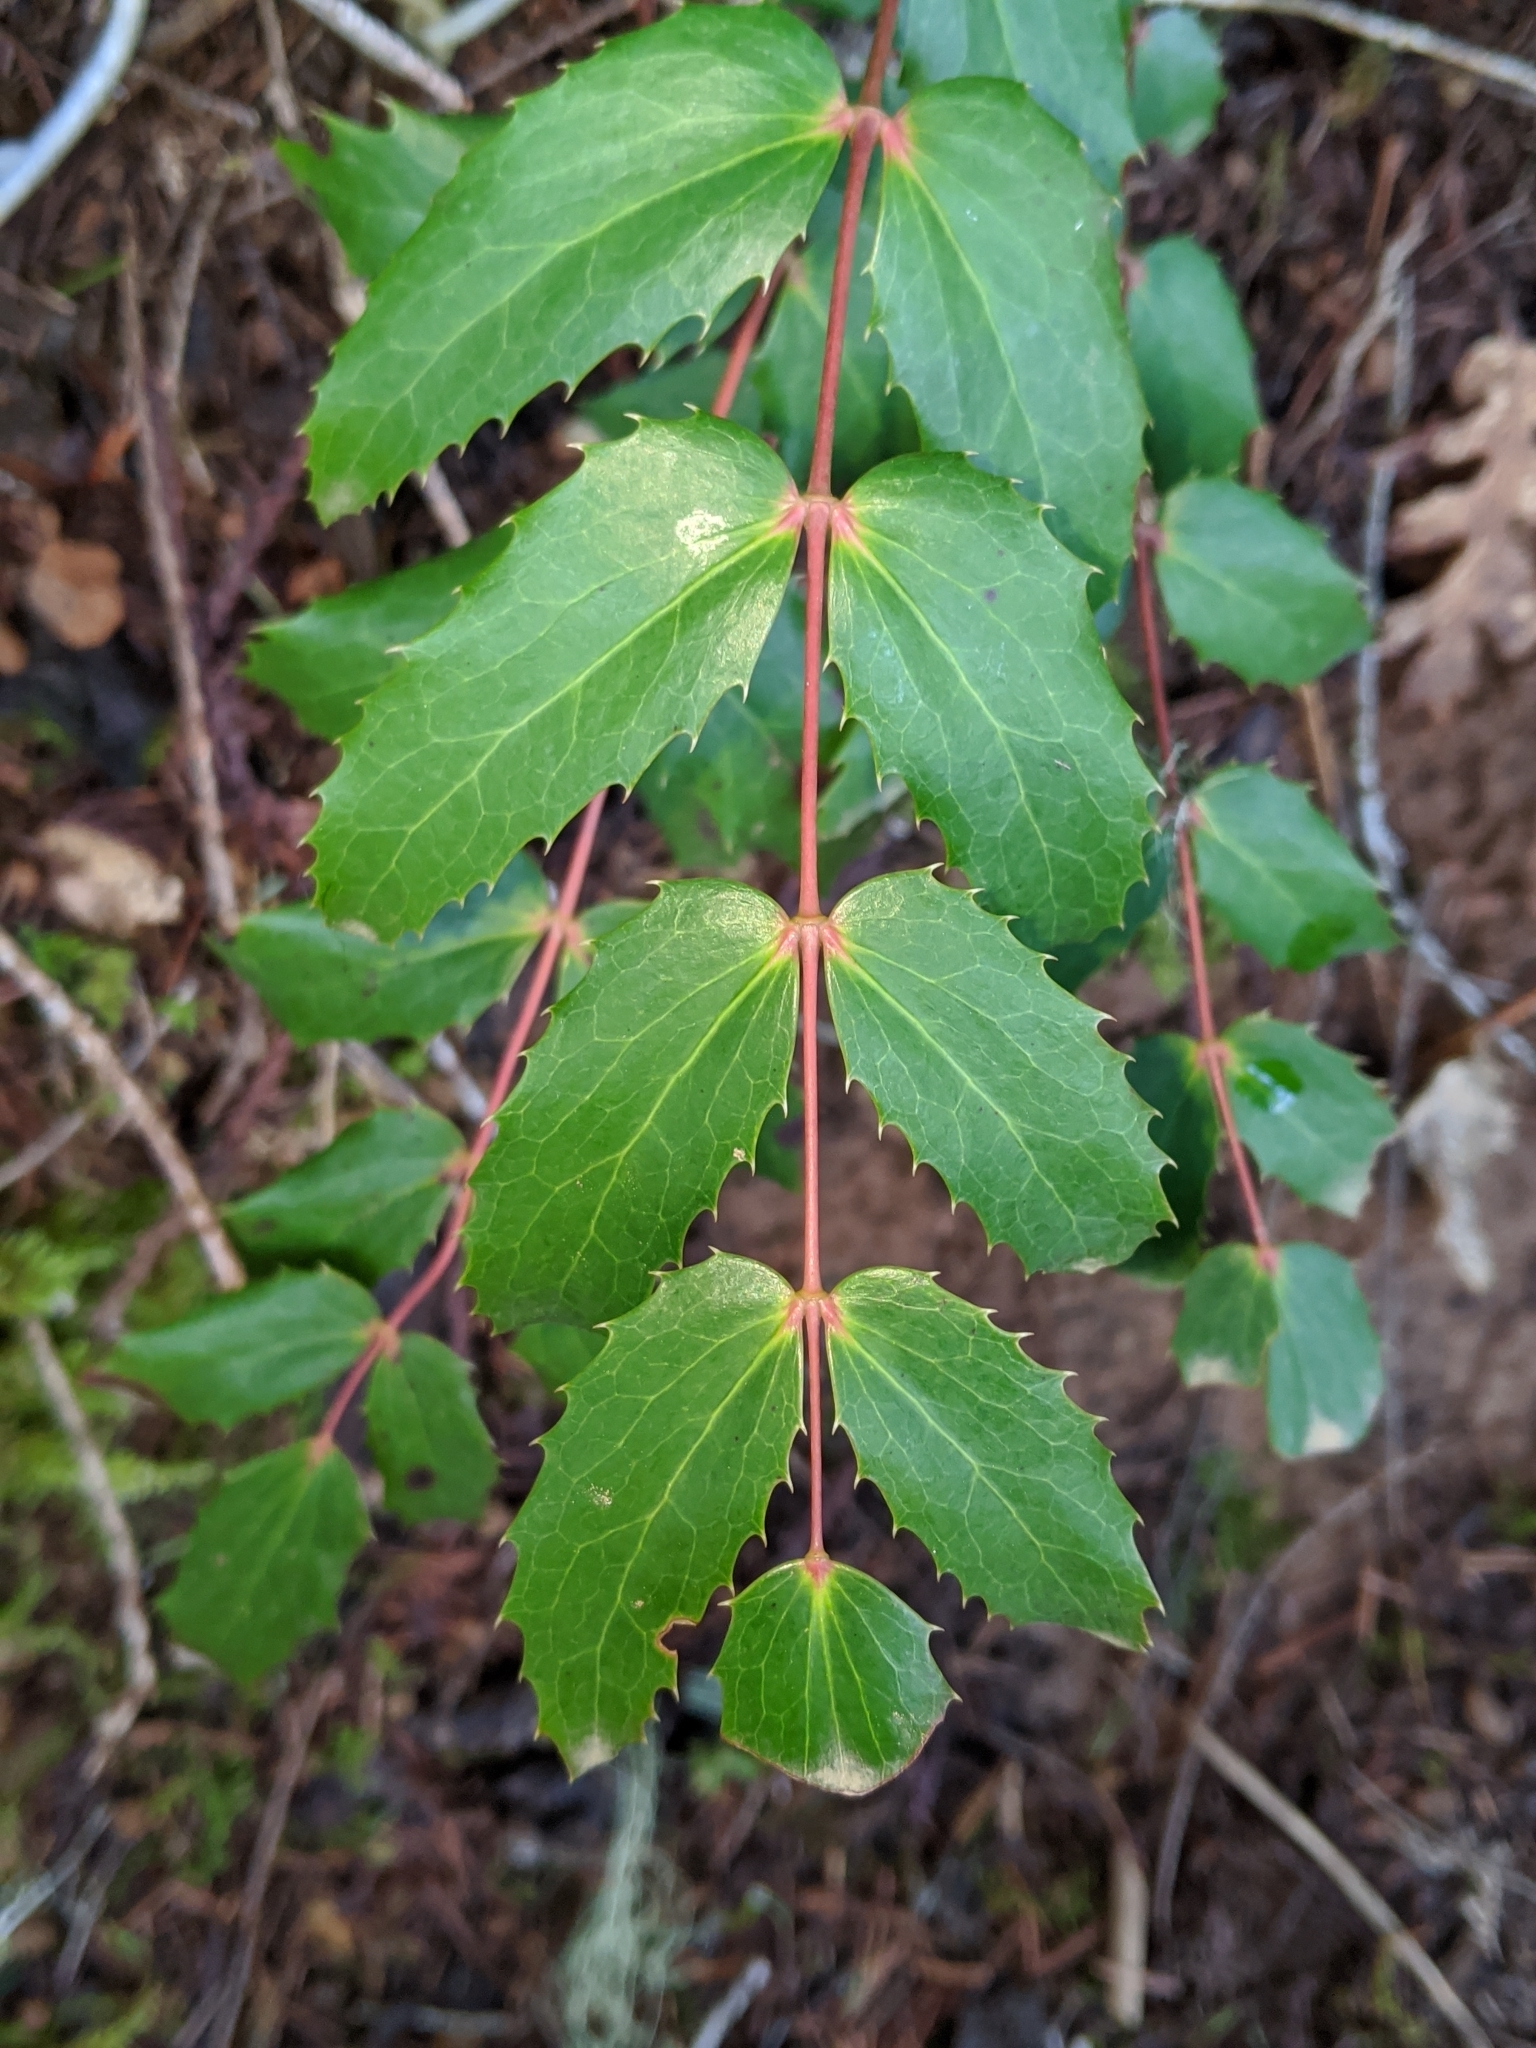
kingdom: Plantae
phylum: Tracheophyta
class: Magnoliopsida
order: Ranunculales
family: Berberidaceae
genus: Mahonia
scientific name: Mahonia nervosa
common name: Cascade oregon-grape
